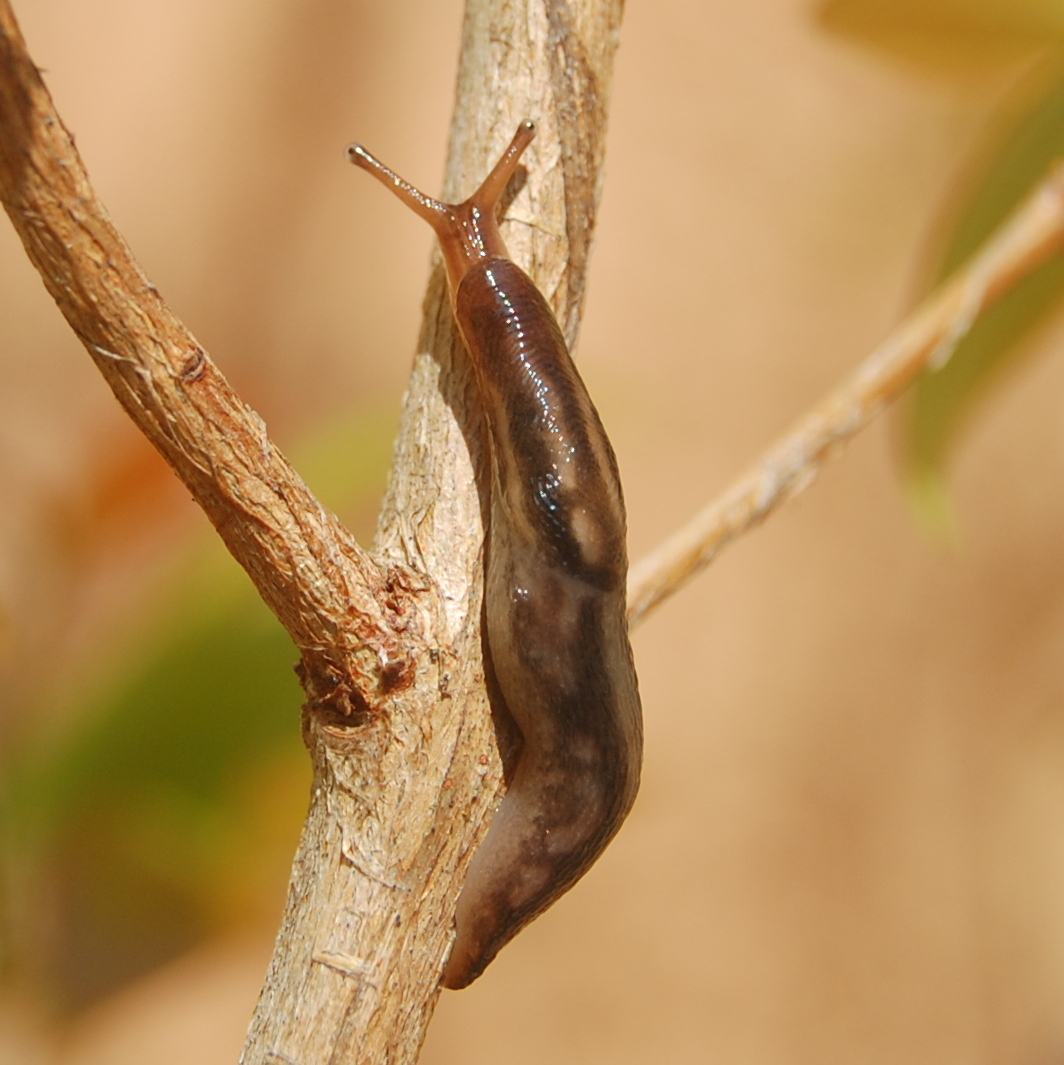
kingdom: Animalia
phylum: Mollusca
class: Gastropoda
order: Stylommatophora
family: Limacidae
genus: Ambigolimax
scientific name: Ambigolimax valentianus
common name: Greenhouse slug
